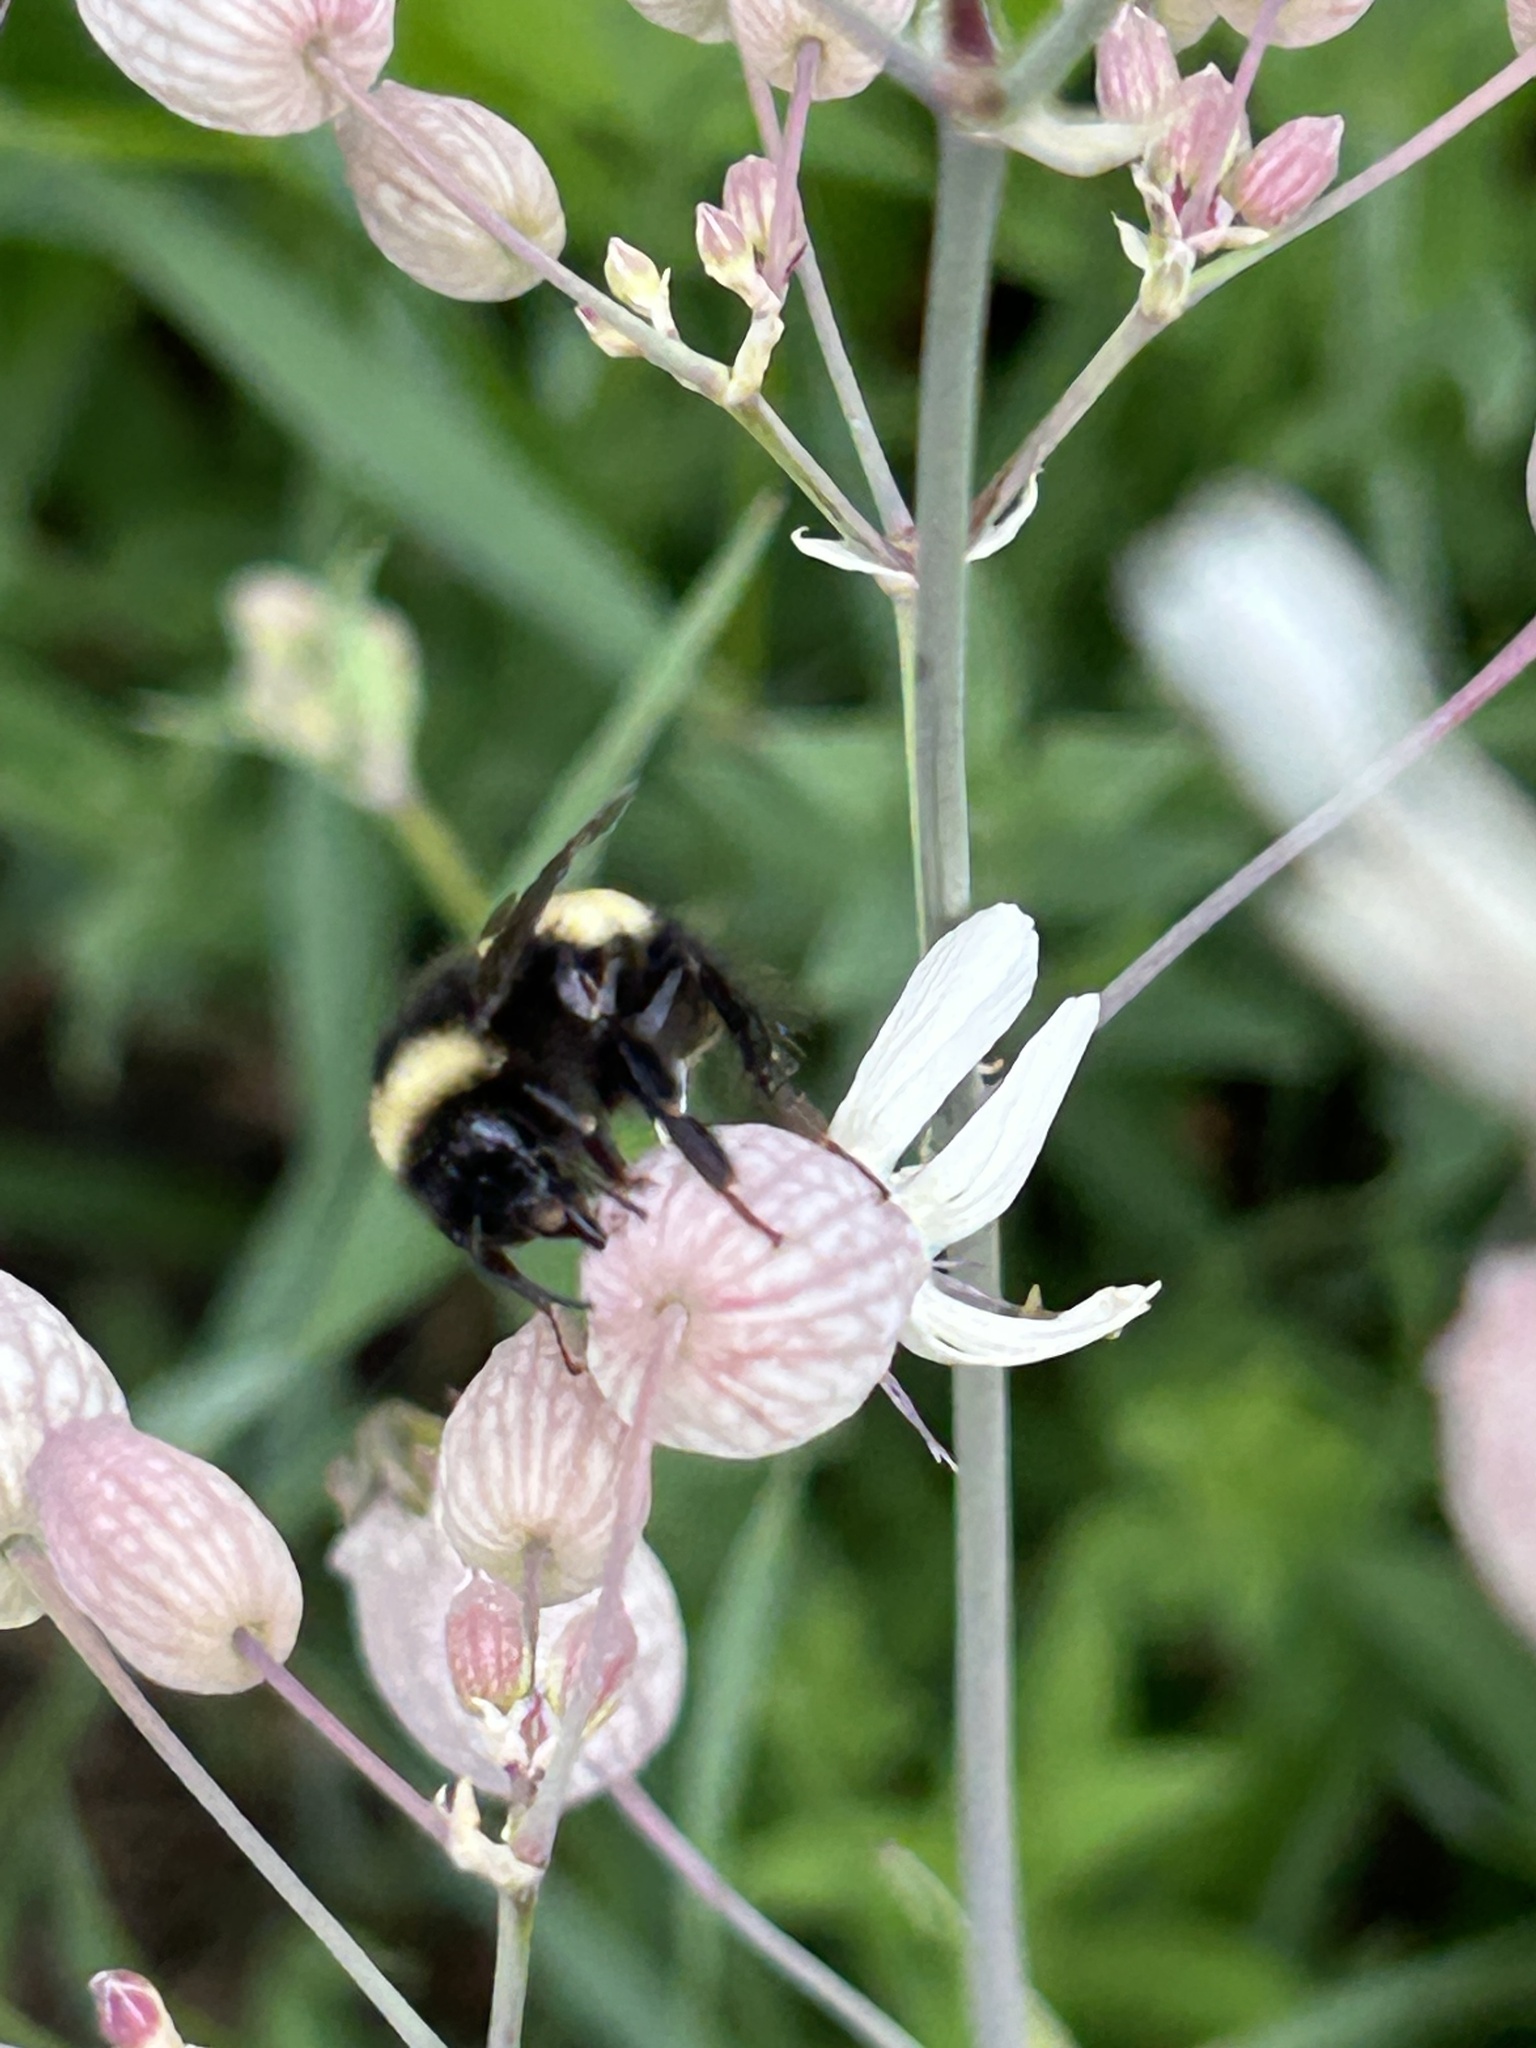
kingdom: Animalia
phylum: Arthropoda
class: Insecta
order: Hymenoptera
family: Apidae
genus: Bombus
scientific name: Bombus terricola
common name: Yellow-banded bumble bee
